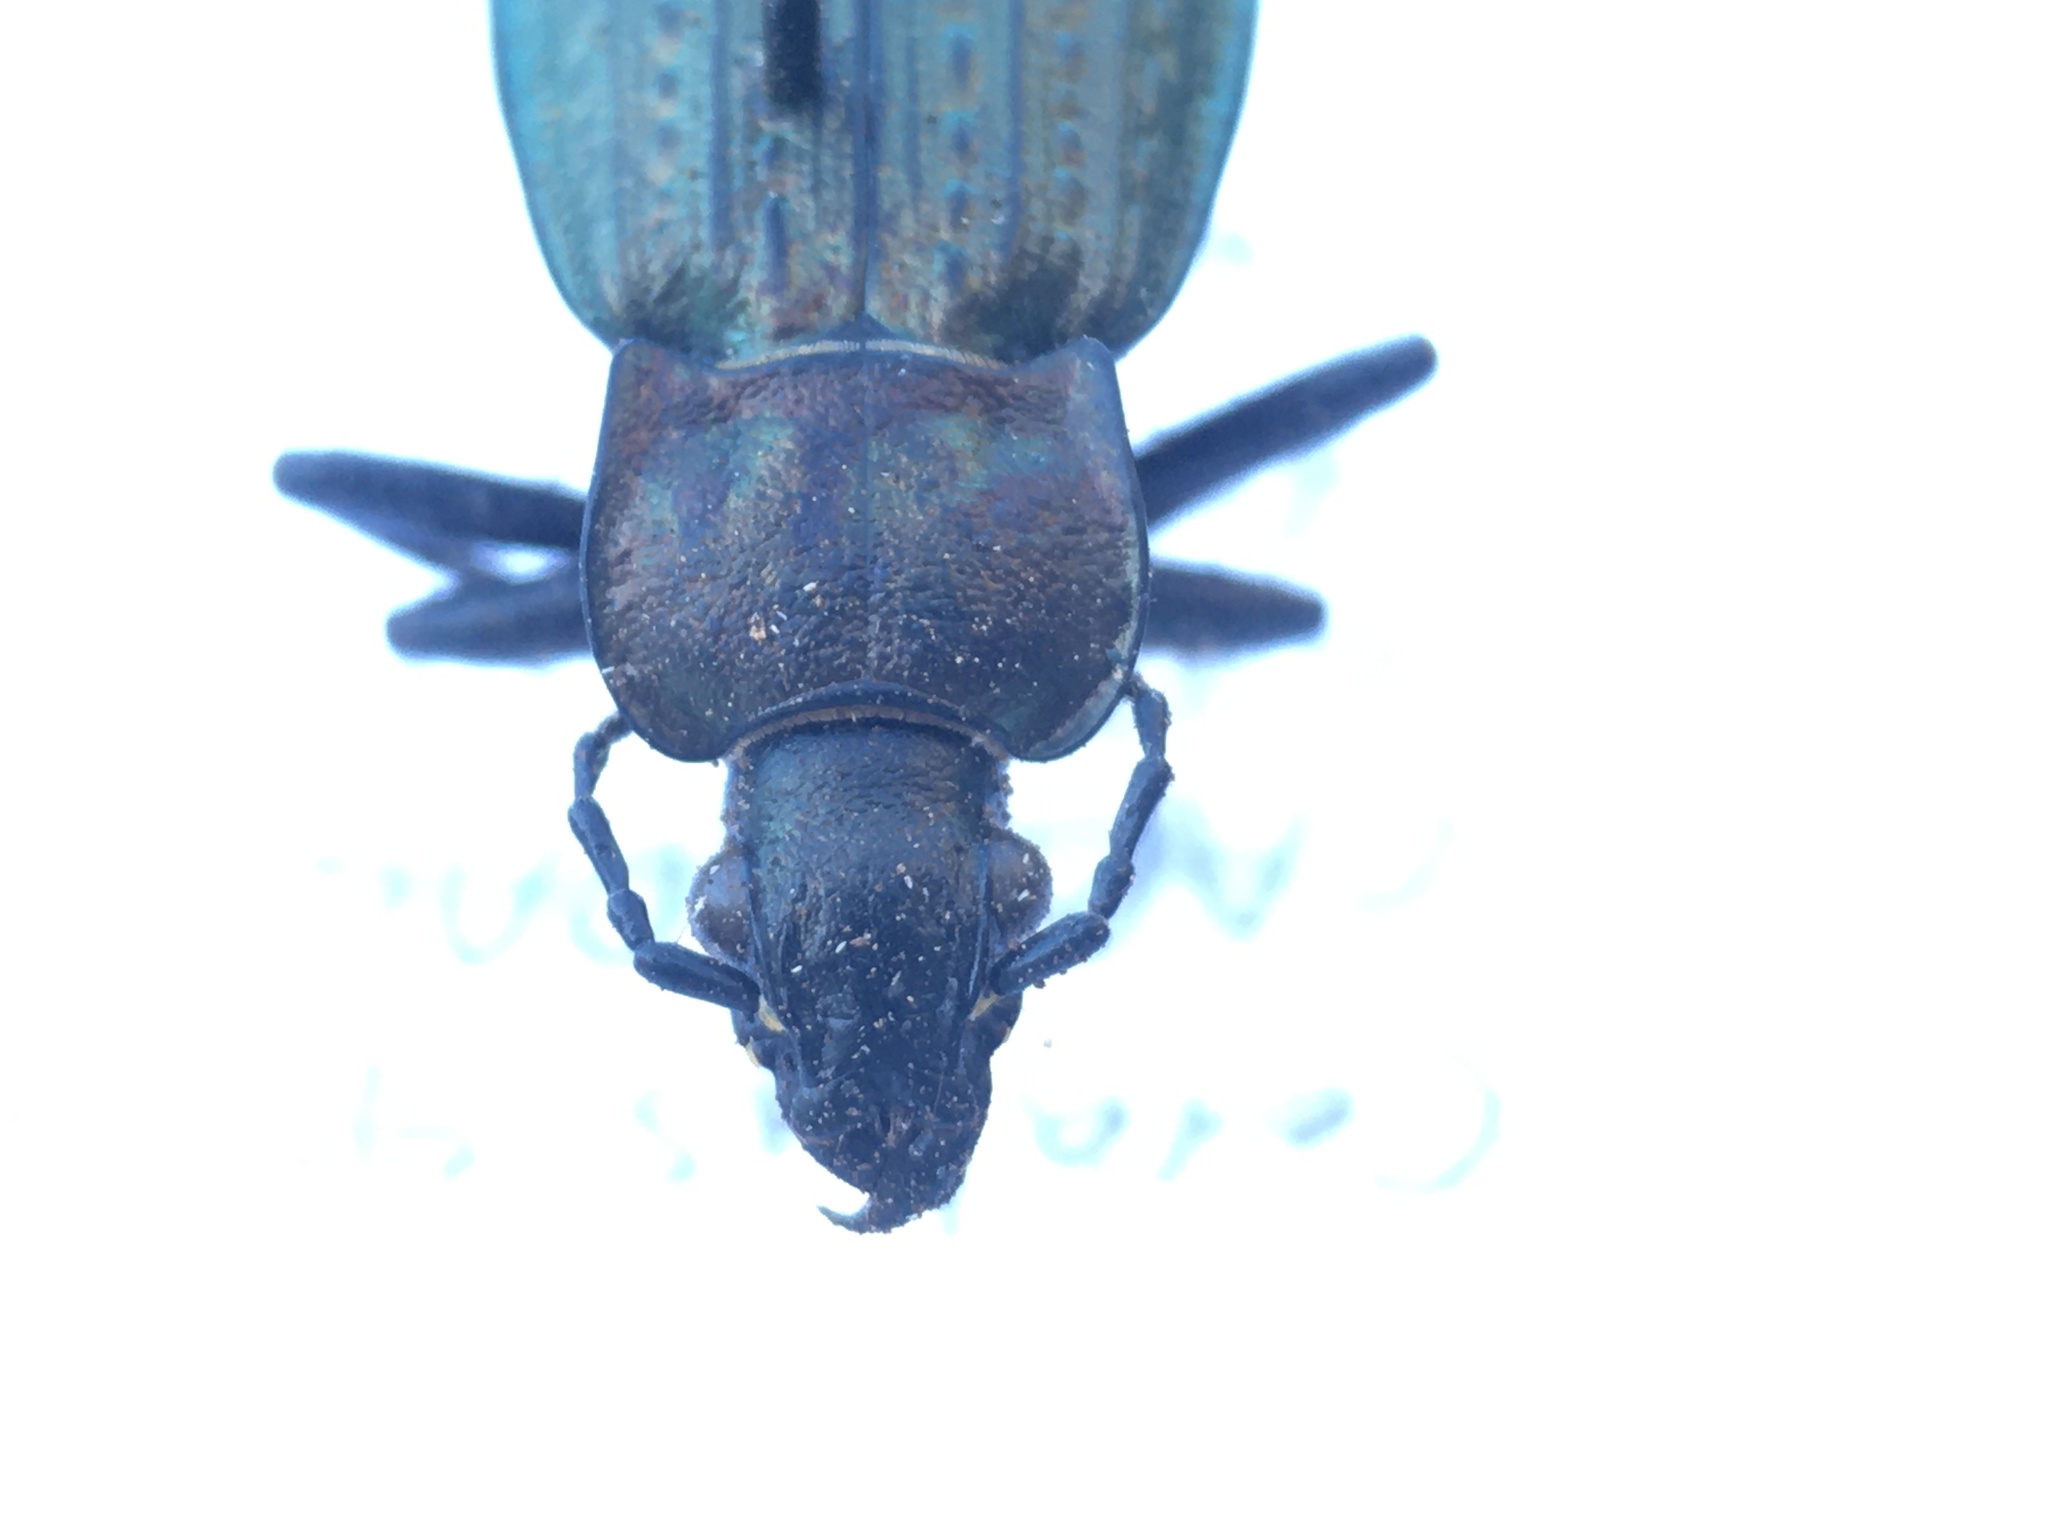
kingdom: Animalia
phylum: Arthropoda
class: Insecta
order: Coleoptera
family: Carabidae
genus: Carabus
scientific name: Carabus granulatus
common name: Granulate ground beetle
